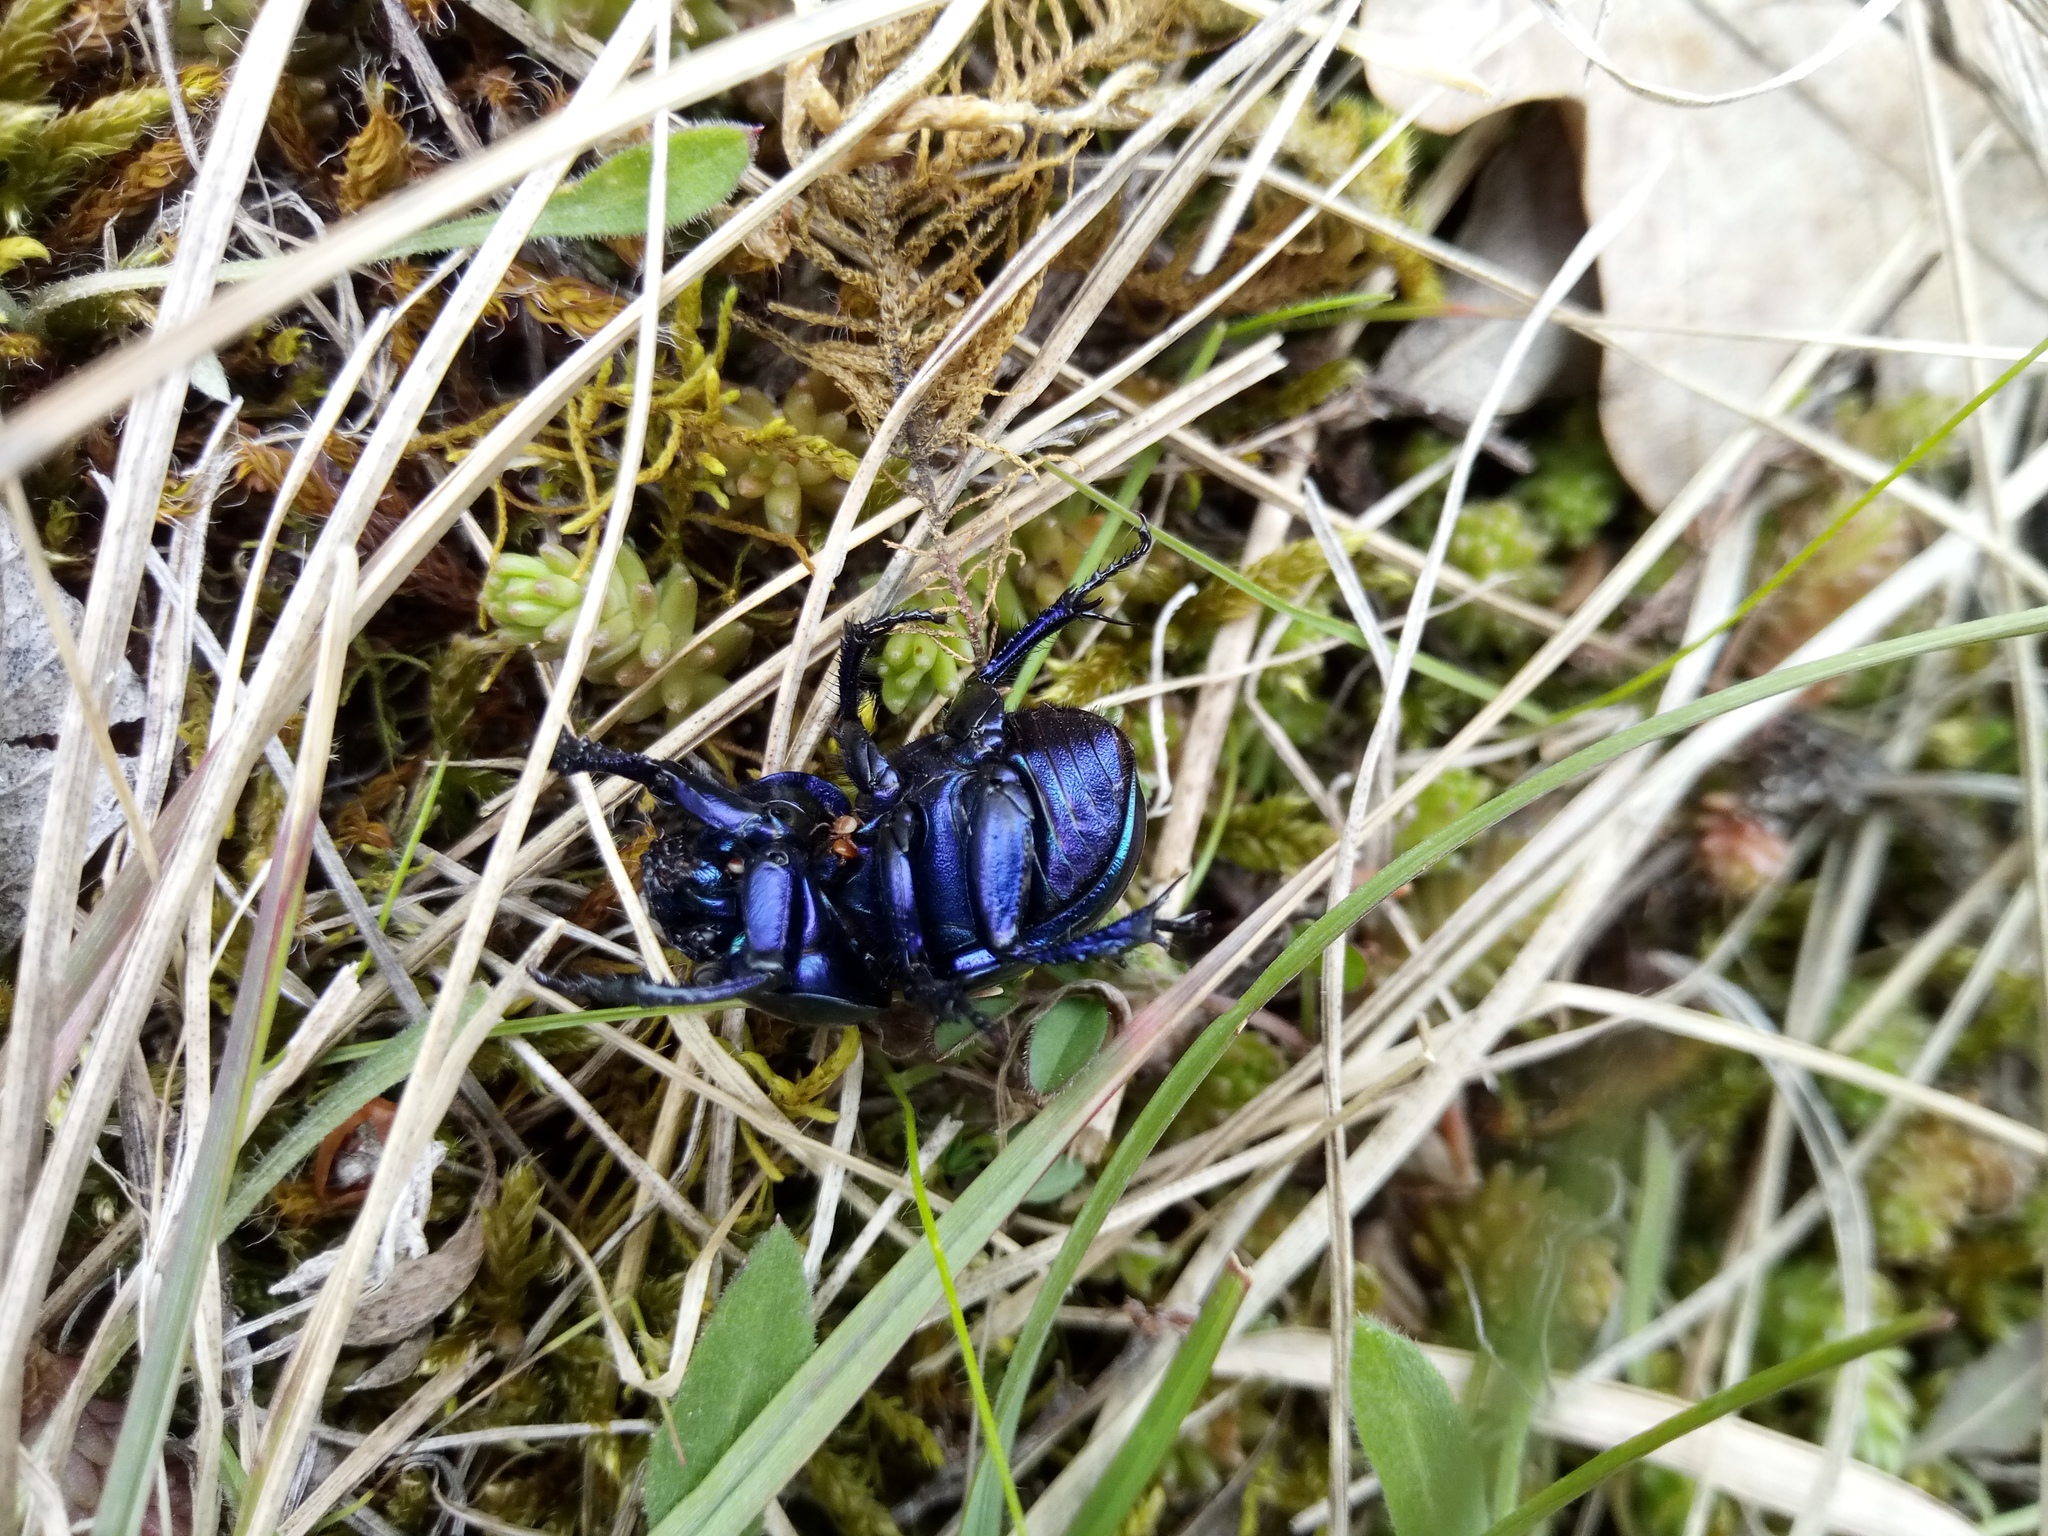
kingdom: Animalia
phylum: Arthropoda
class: Insecta
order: Coleoptera
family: Geotrupidae
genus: Trypocopris
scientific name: Trypocopris vernalis
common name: Spring dumbledor
